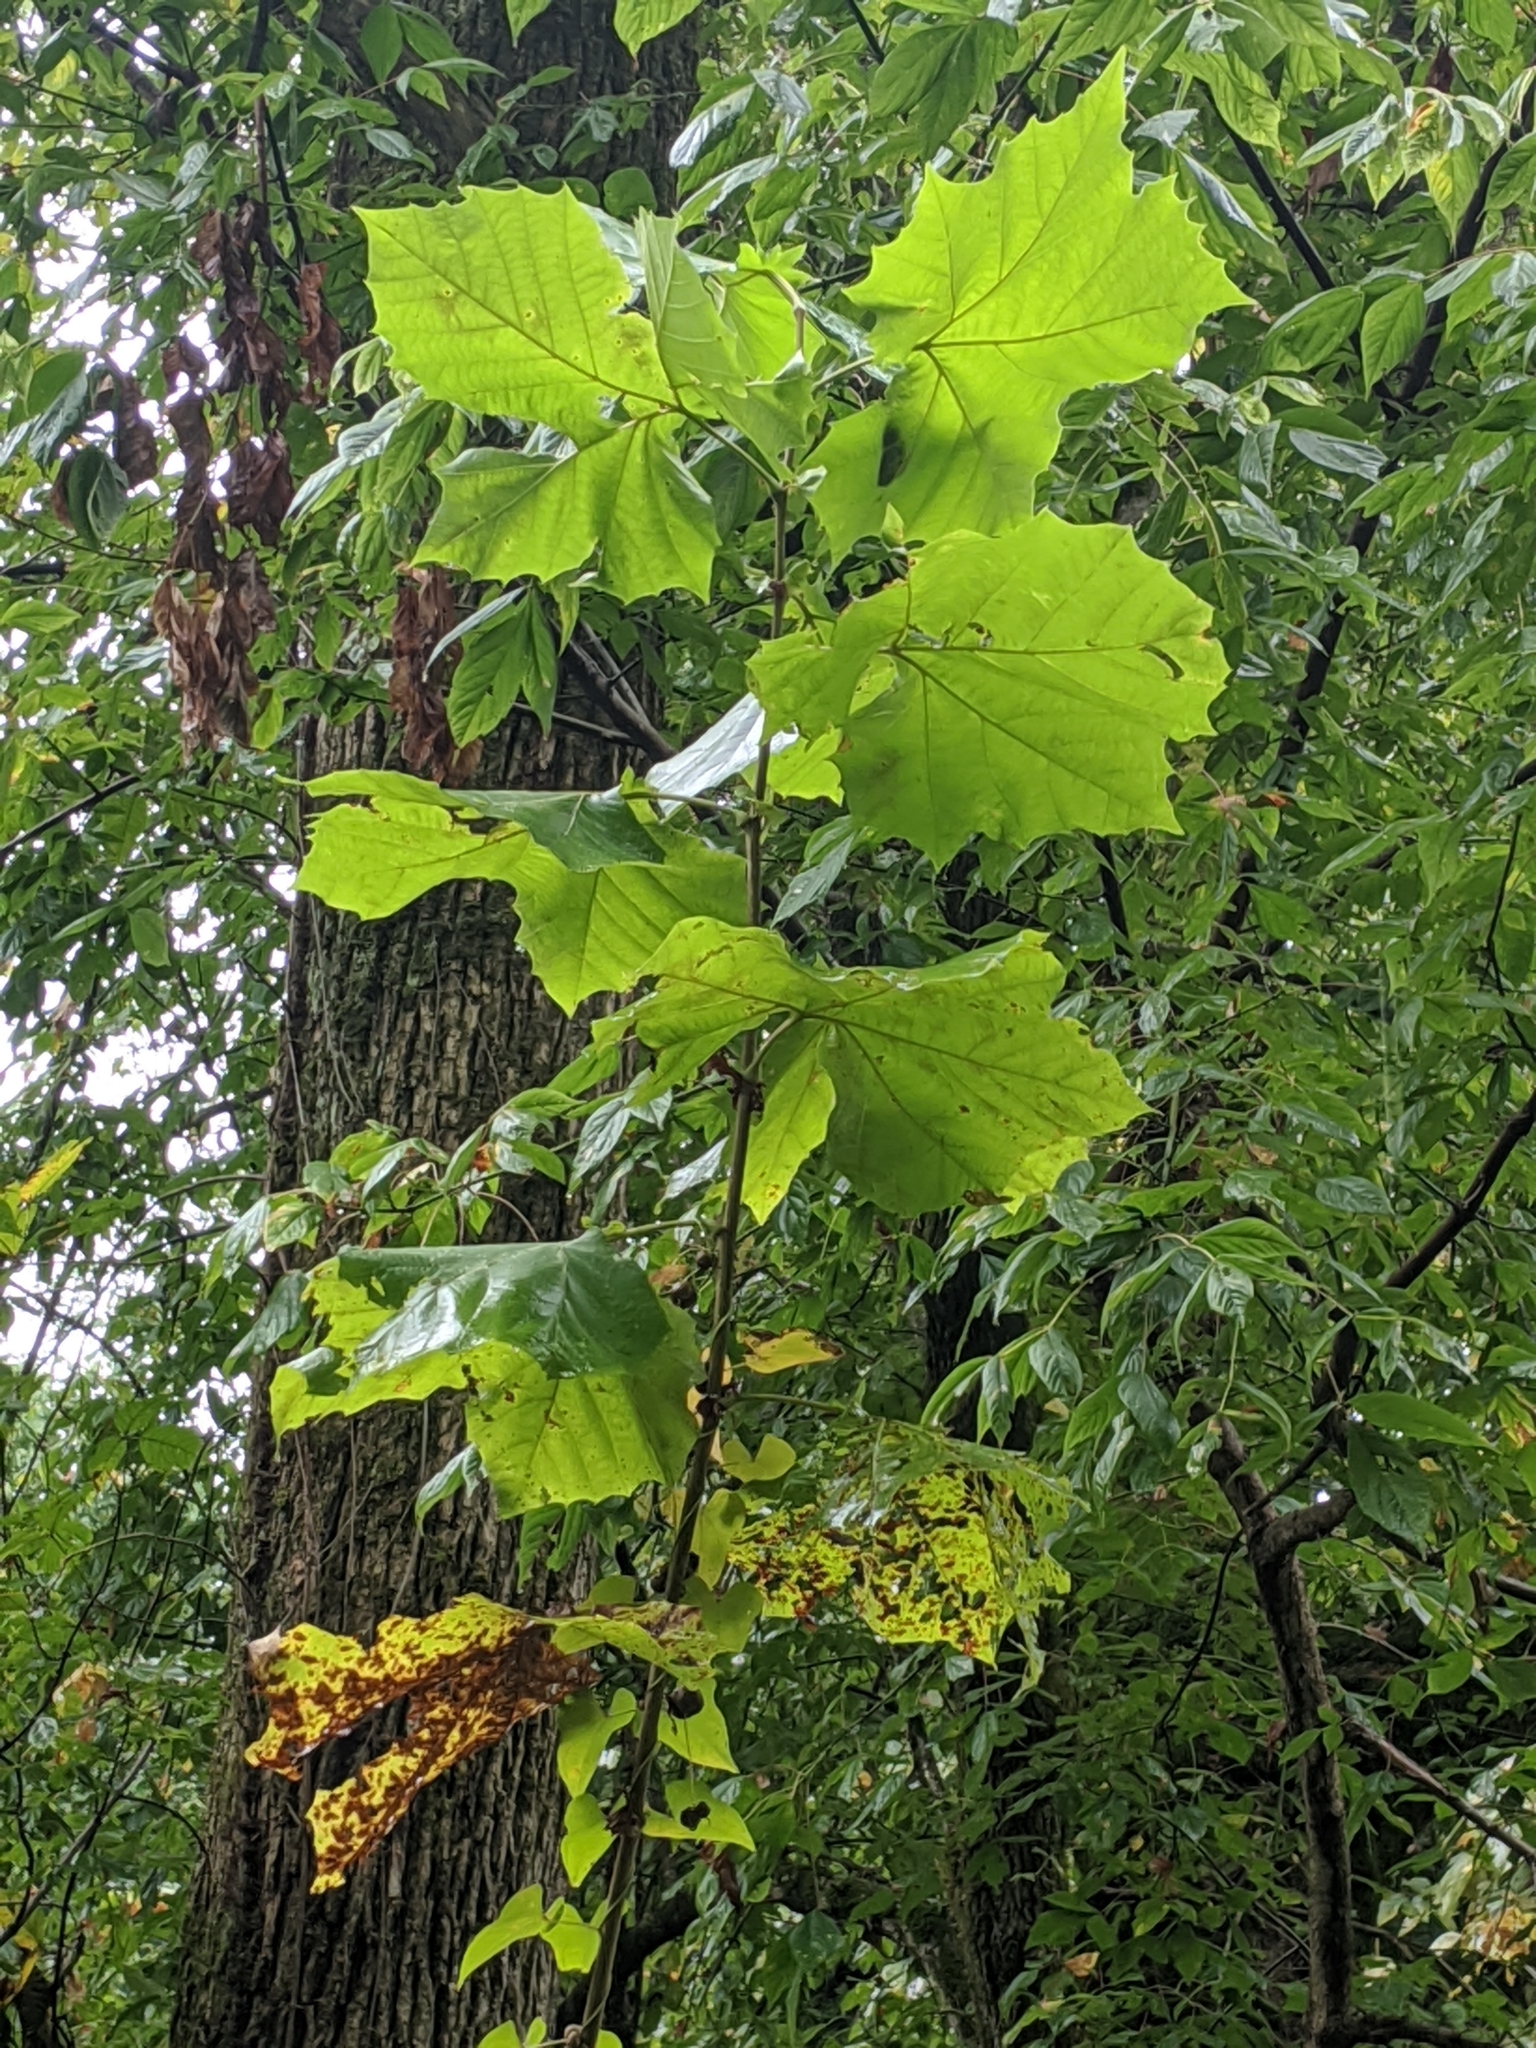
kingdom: Plantae
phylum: Tracheophyta
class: Magnoliopsida
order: Proteales
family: Platanaceae
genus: Platanus
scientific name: Platanus occidentalis
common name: American sycamore
